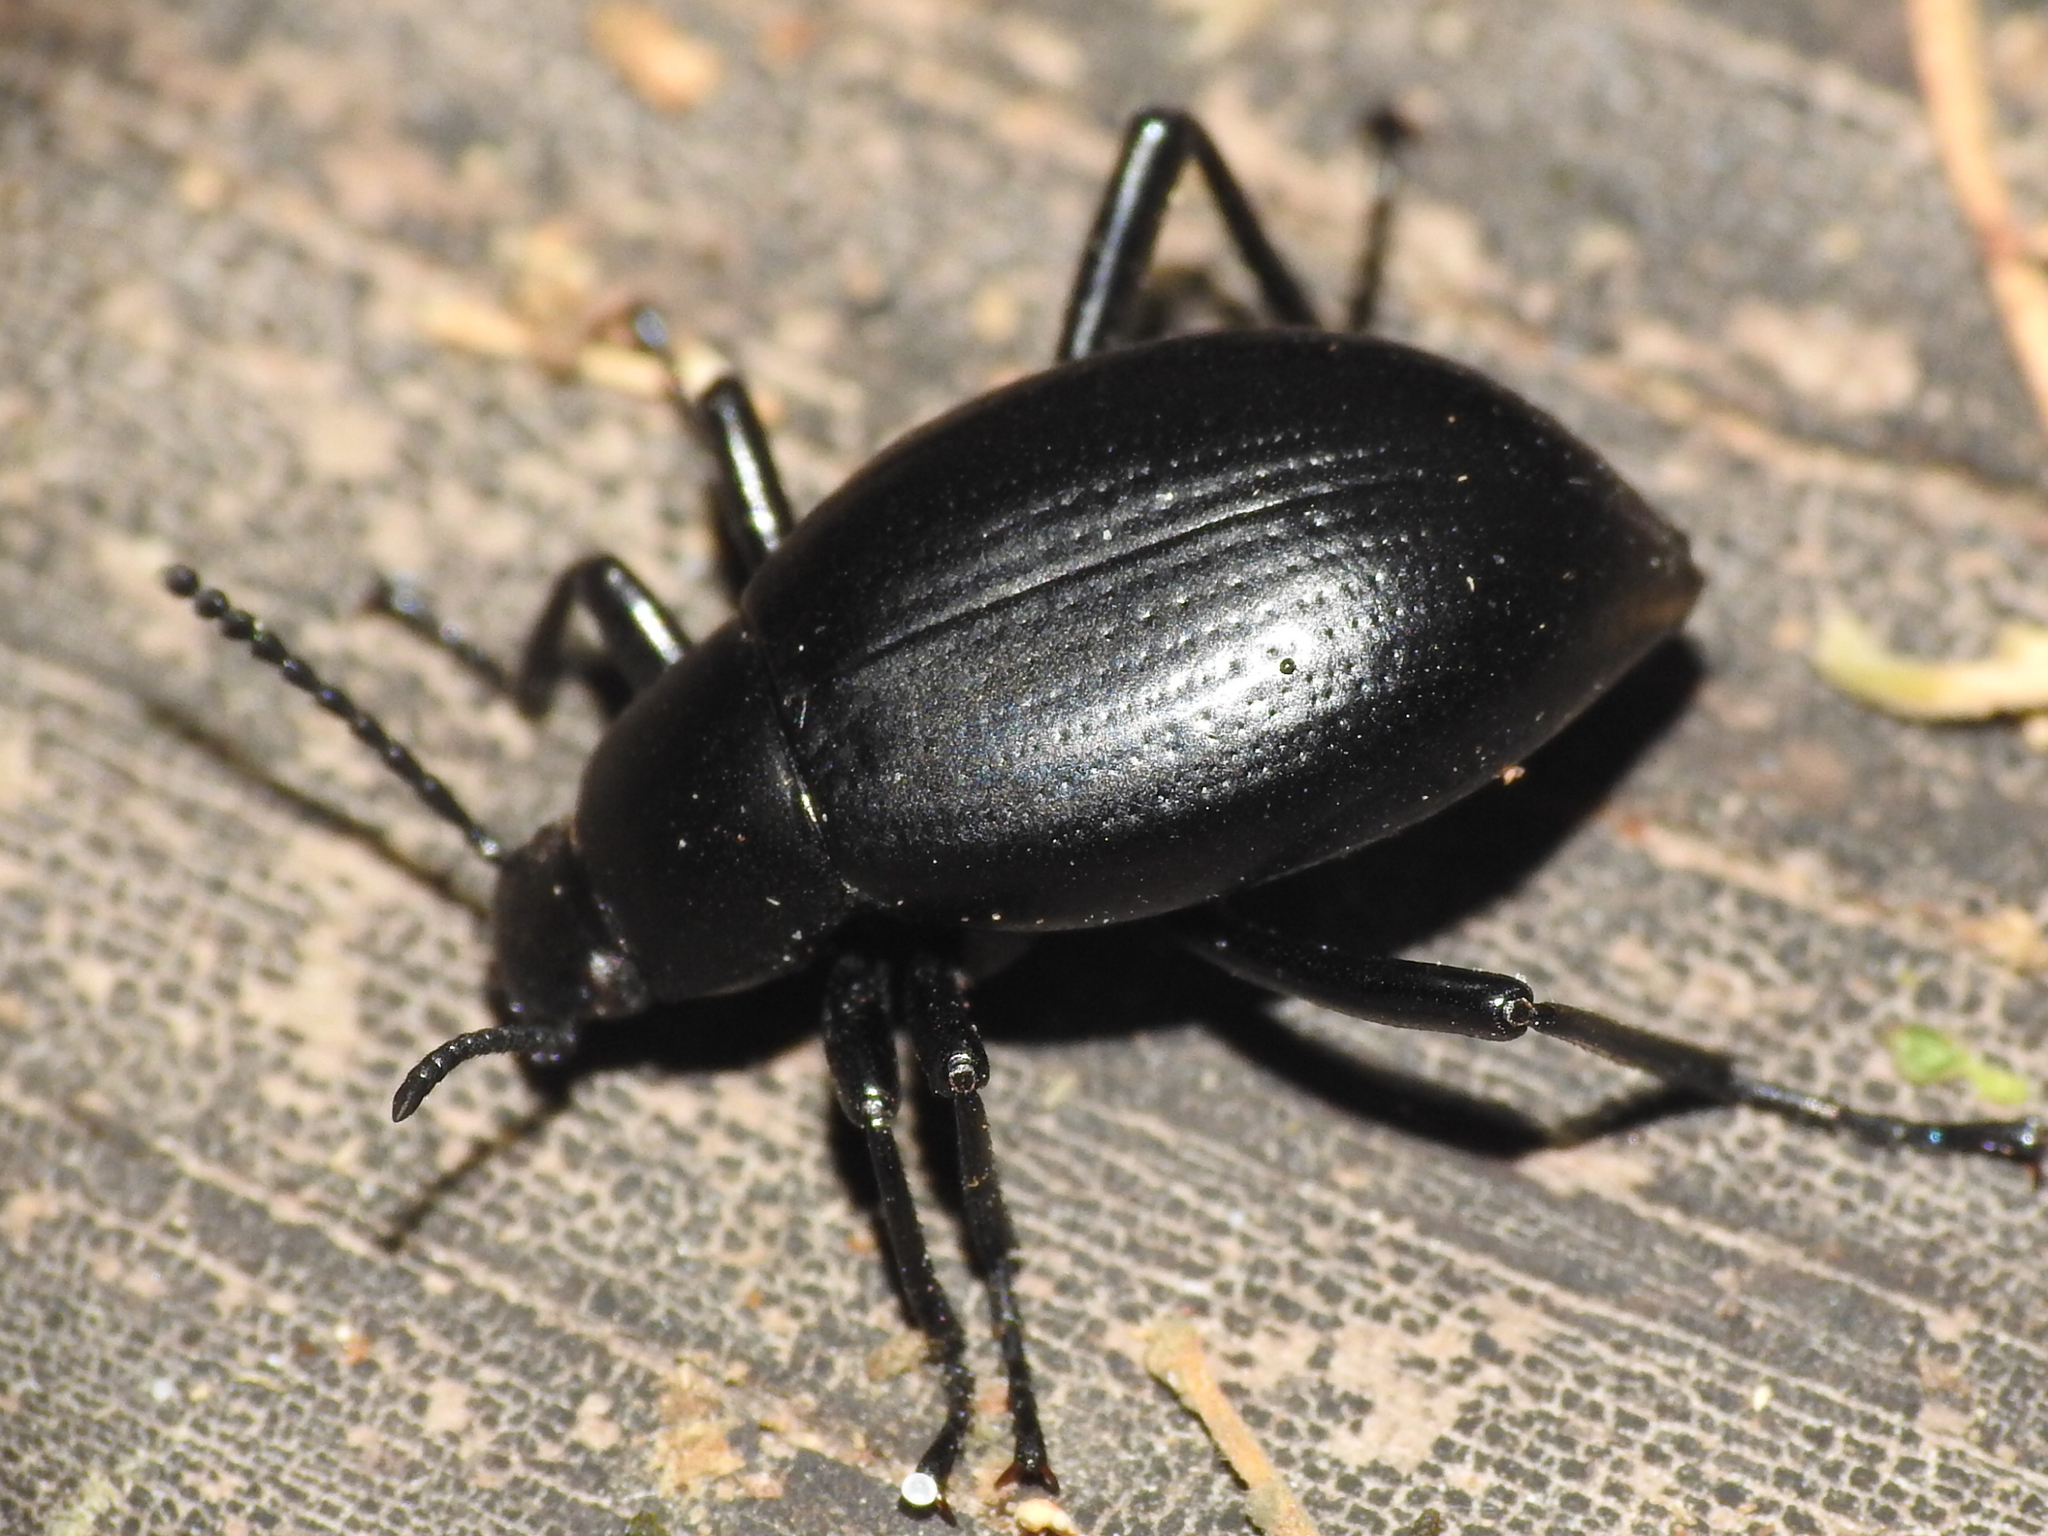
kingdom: Animalia
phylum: Arthropoda
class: Insecta
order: Coleoptera
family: Tenebrionidae
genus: Eleodes
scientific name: Eleodes goryi
